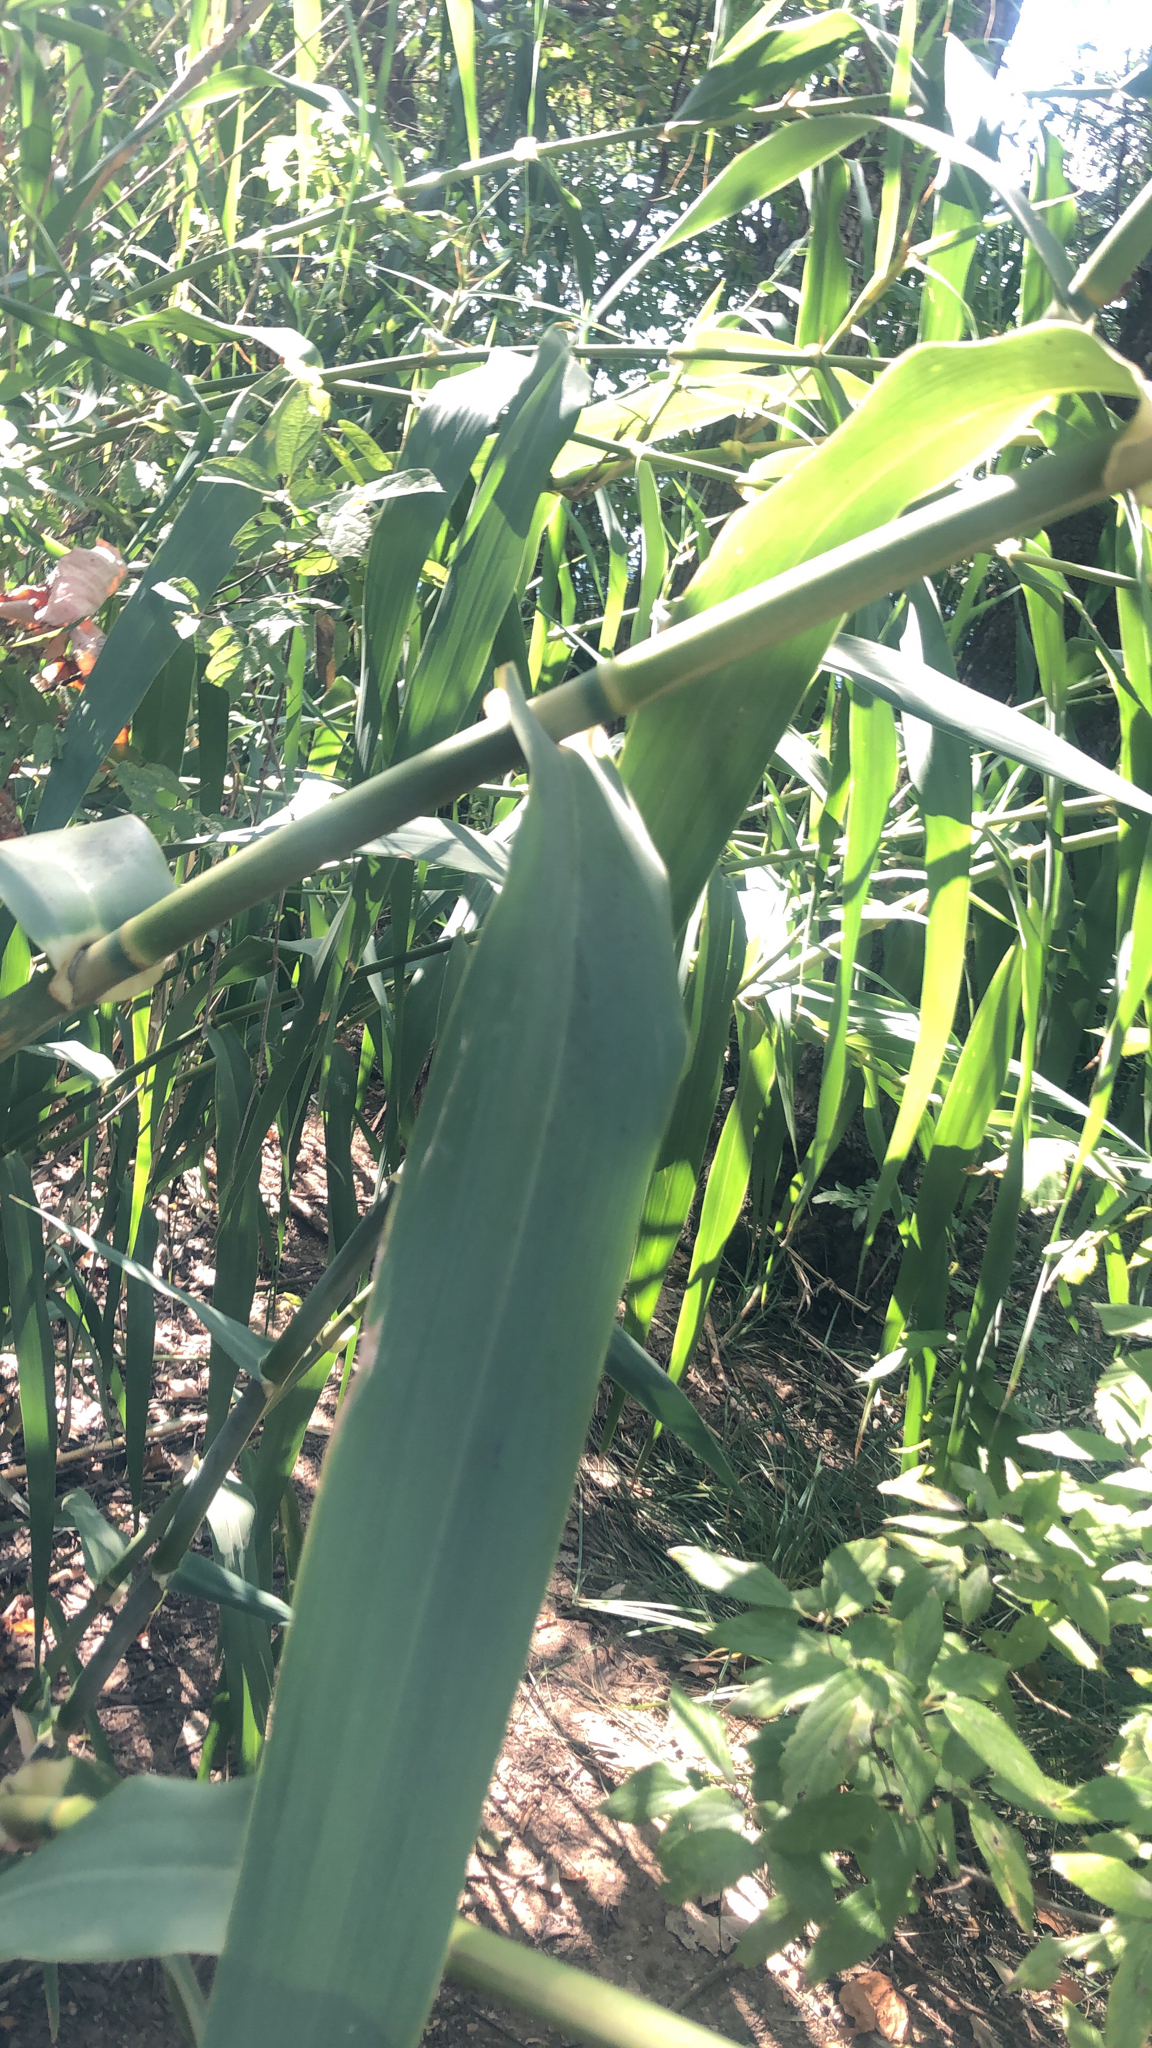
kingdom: Plantae
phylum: Tracheophyta
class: Liliopsida
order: Poales
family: Poaceae
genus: Arundo
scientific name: Arundo donax
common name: Giant reed
